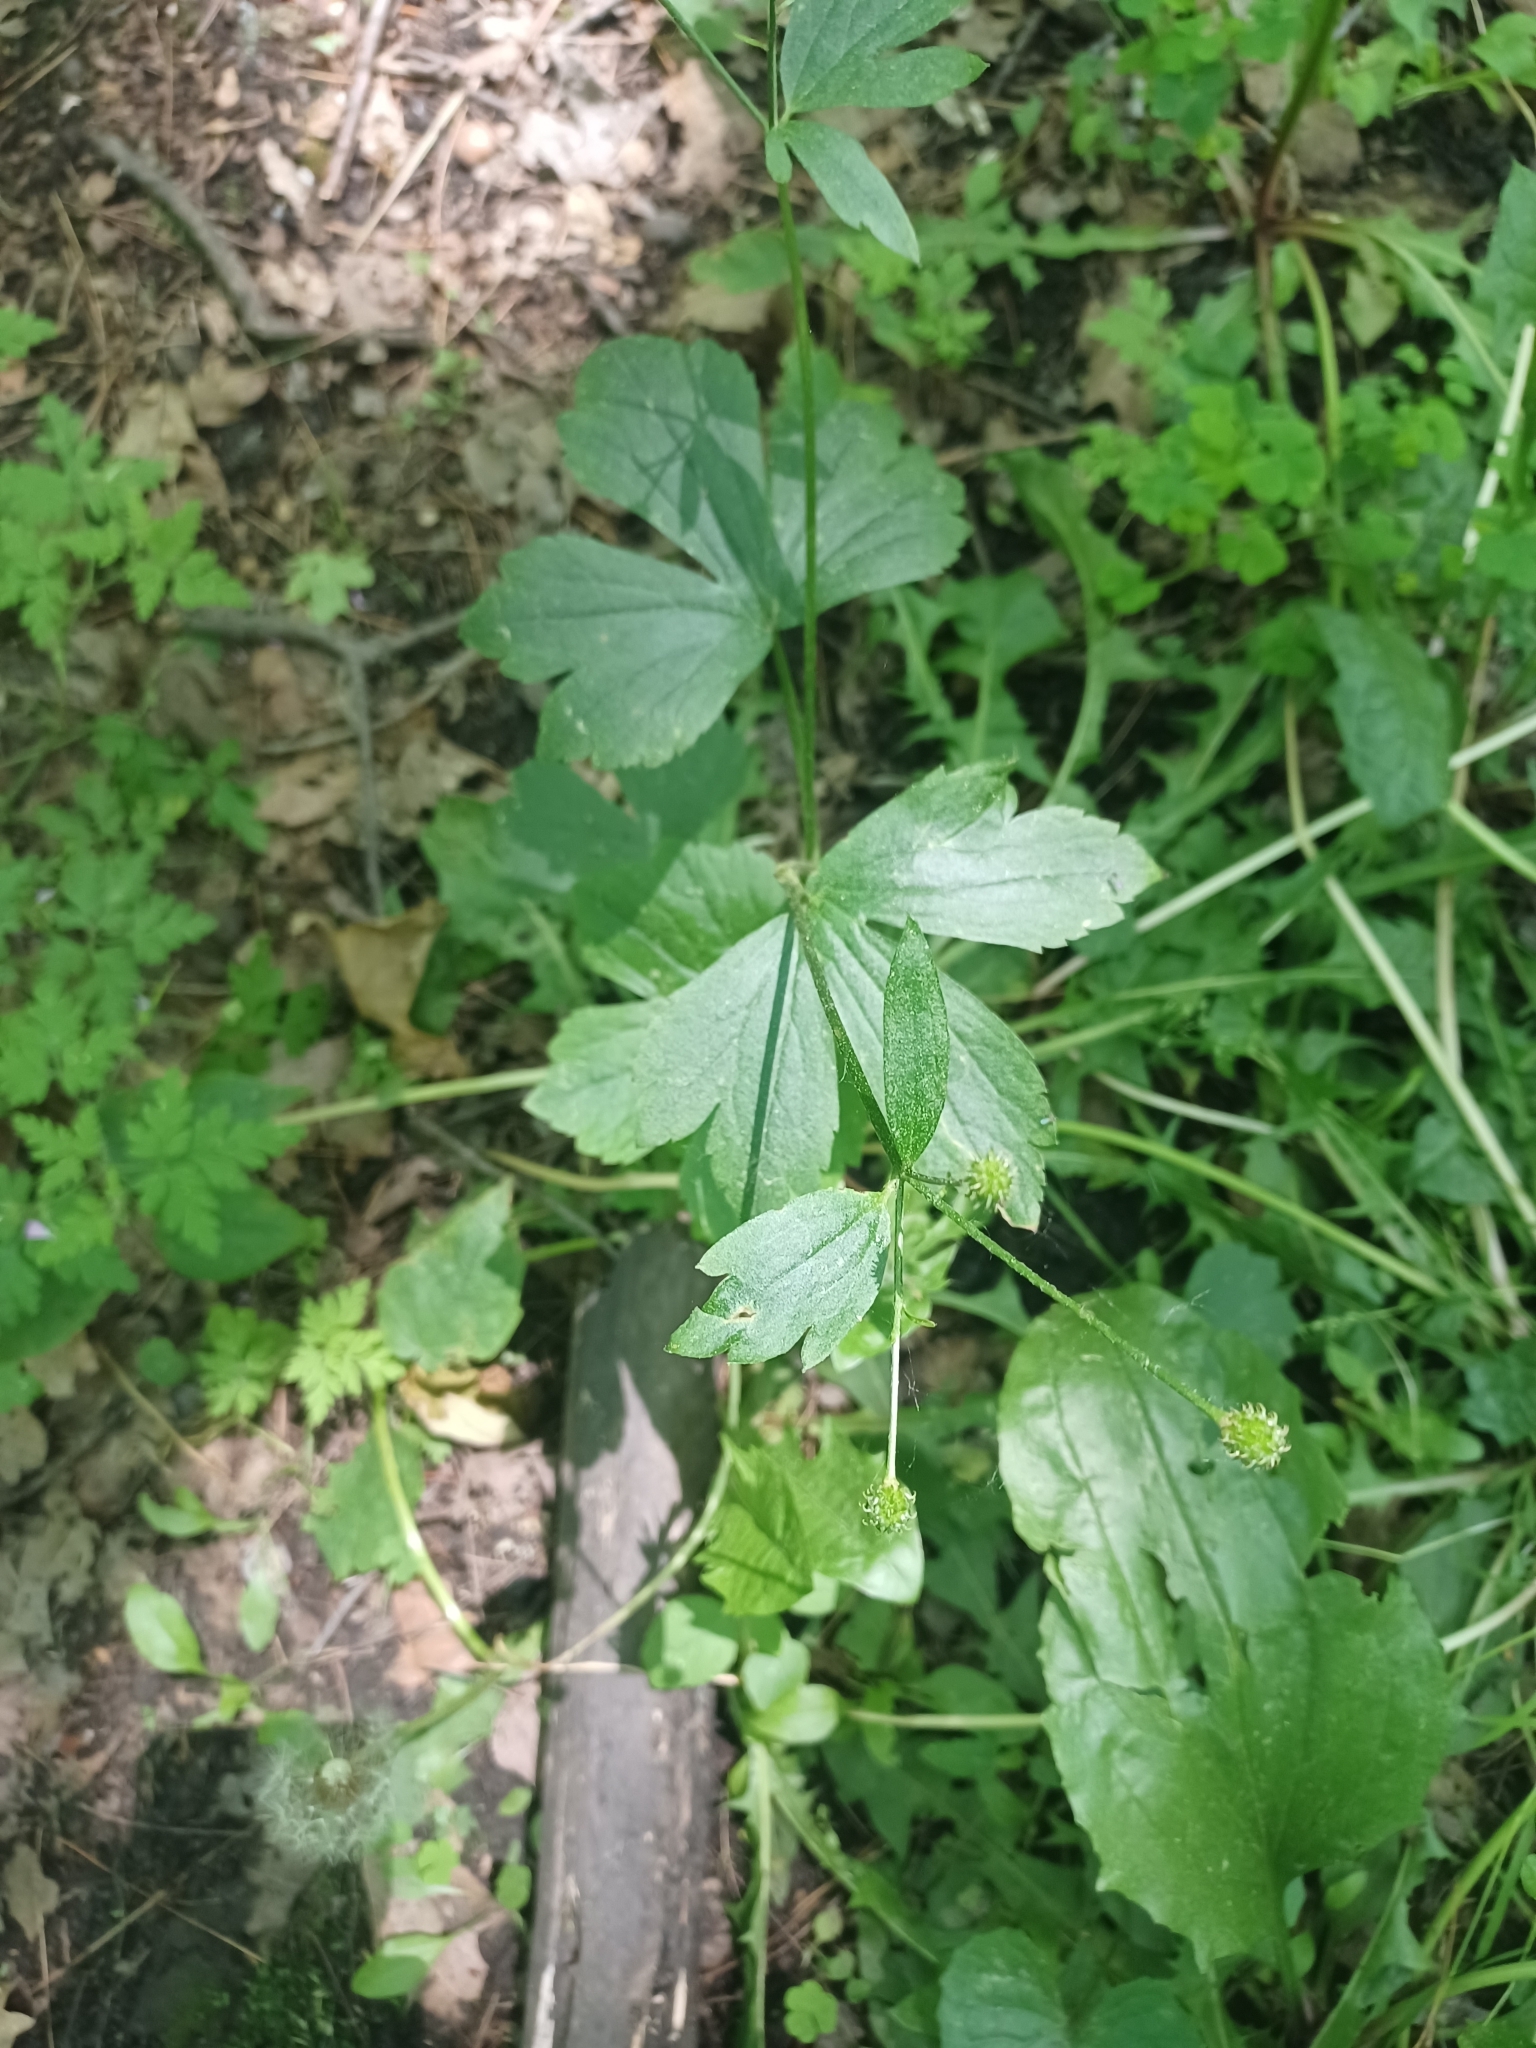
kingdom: Plantae
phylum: Tracheophyta
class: Magnoliopsida
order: Ranunculales
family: Ranunculaceae
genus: Ranunculus
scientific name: Ranunculus recurvatus
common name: Blisterwort
